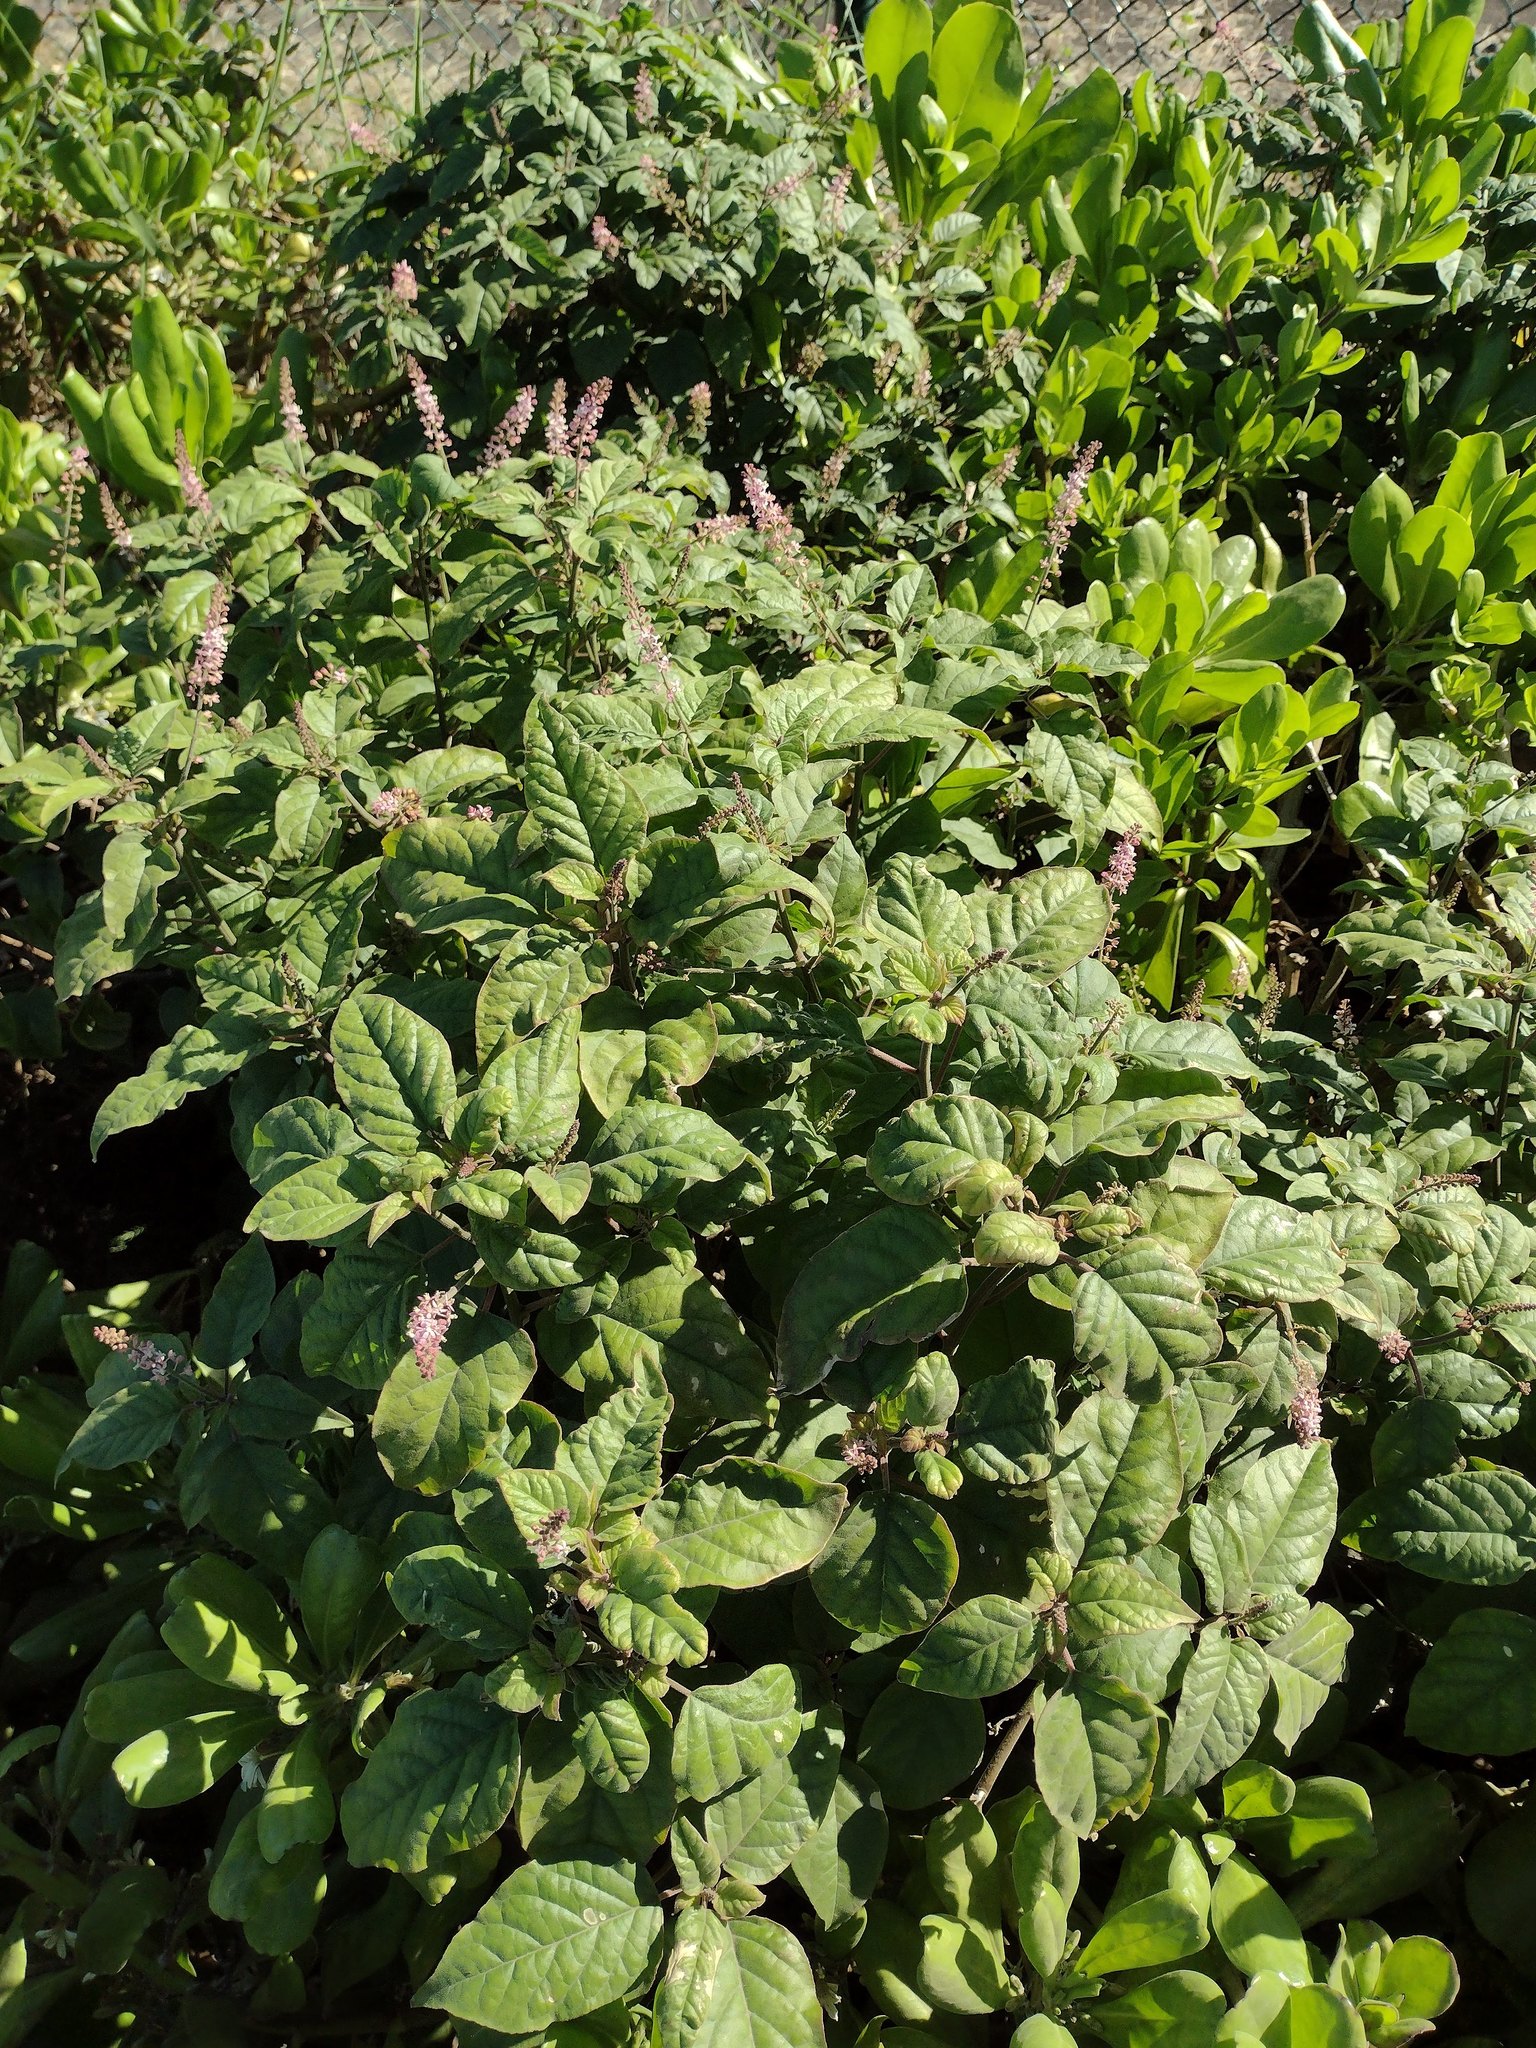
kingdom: Plantae
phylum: Tracheophyta
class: Magnoliopsida
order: Caryophyllales
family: Phytolaccaceae
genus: Rivina
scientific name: Rivina humilis
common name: Rougeplant
